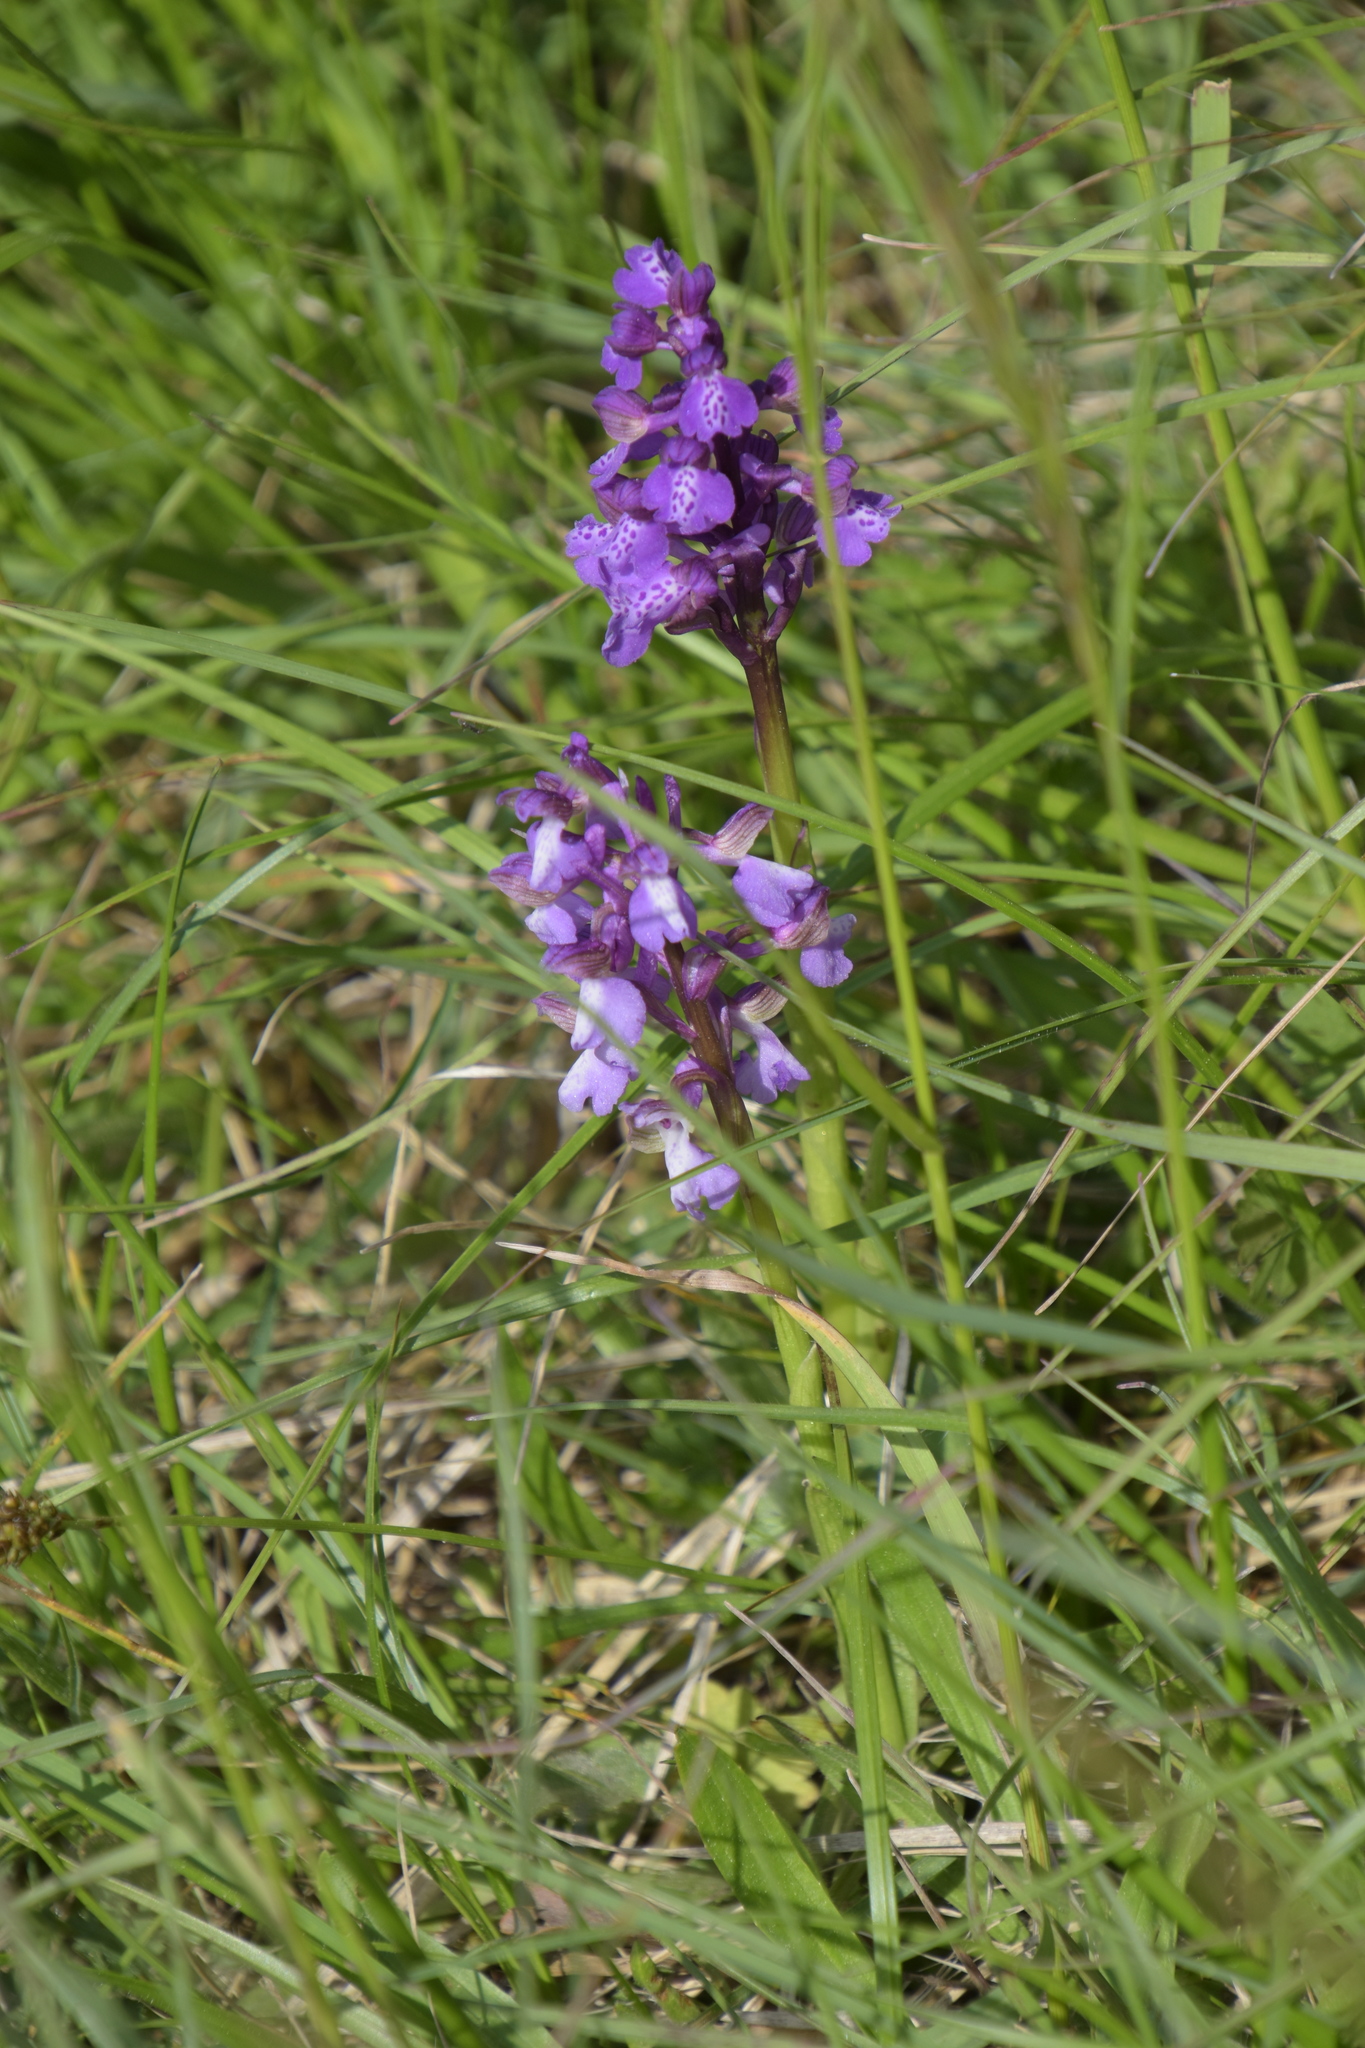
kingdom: Plantae
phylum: Tracheophyta
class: Liliopsida
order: Asparagales
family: Orchidaceae
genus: Anacamptis
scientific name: Anacamptis morio
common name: Green-winged orchid
